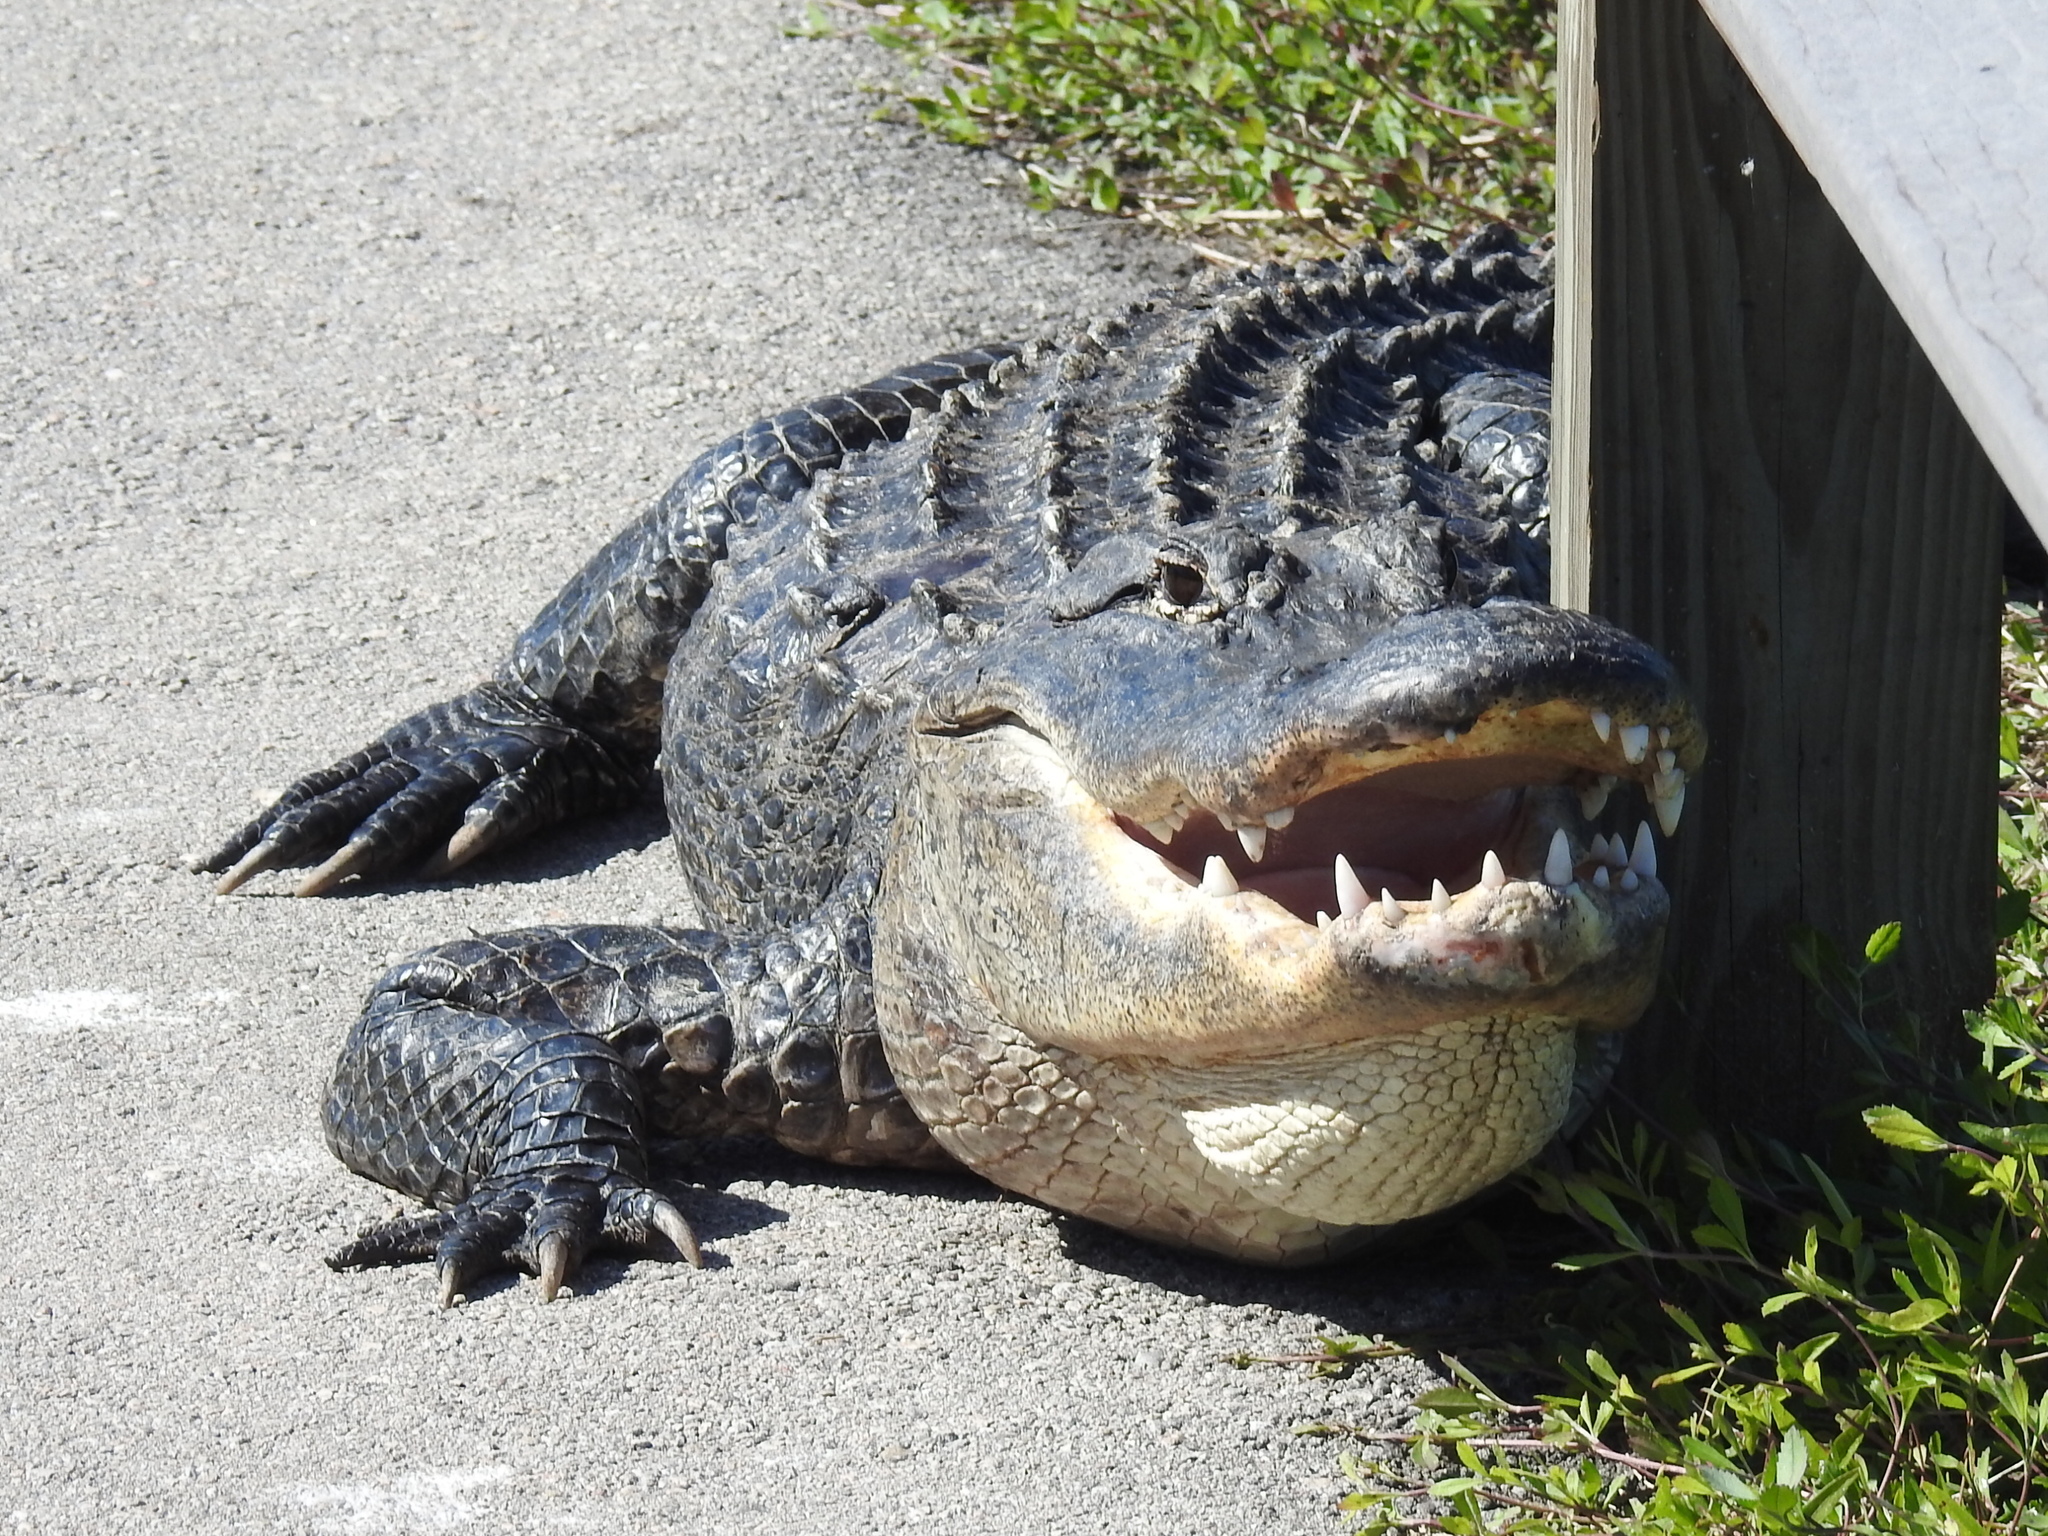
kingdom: Animalia
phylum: Chordata
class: Crocodylia
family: Alligatoridae
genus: Alligator
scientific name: Alligator mississippiensis
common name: American alligator
